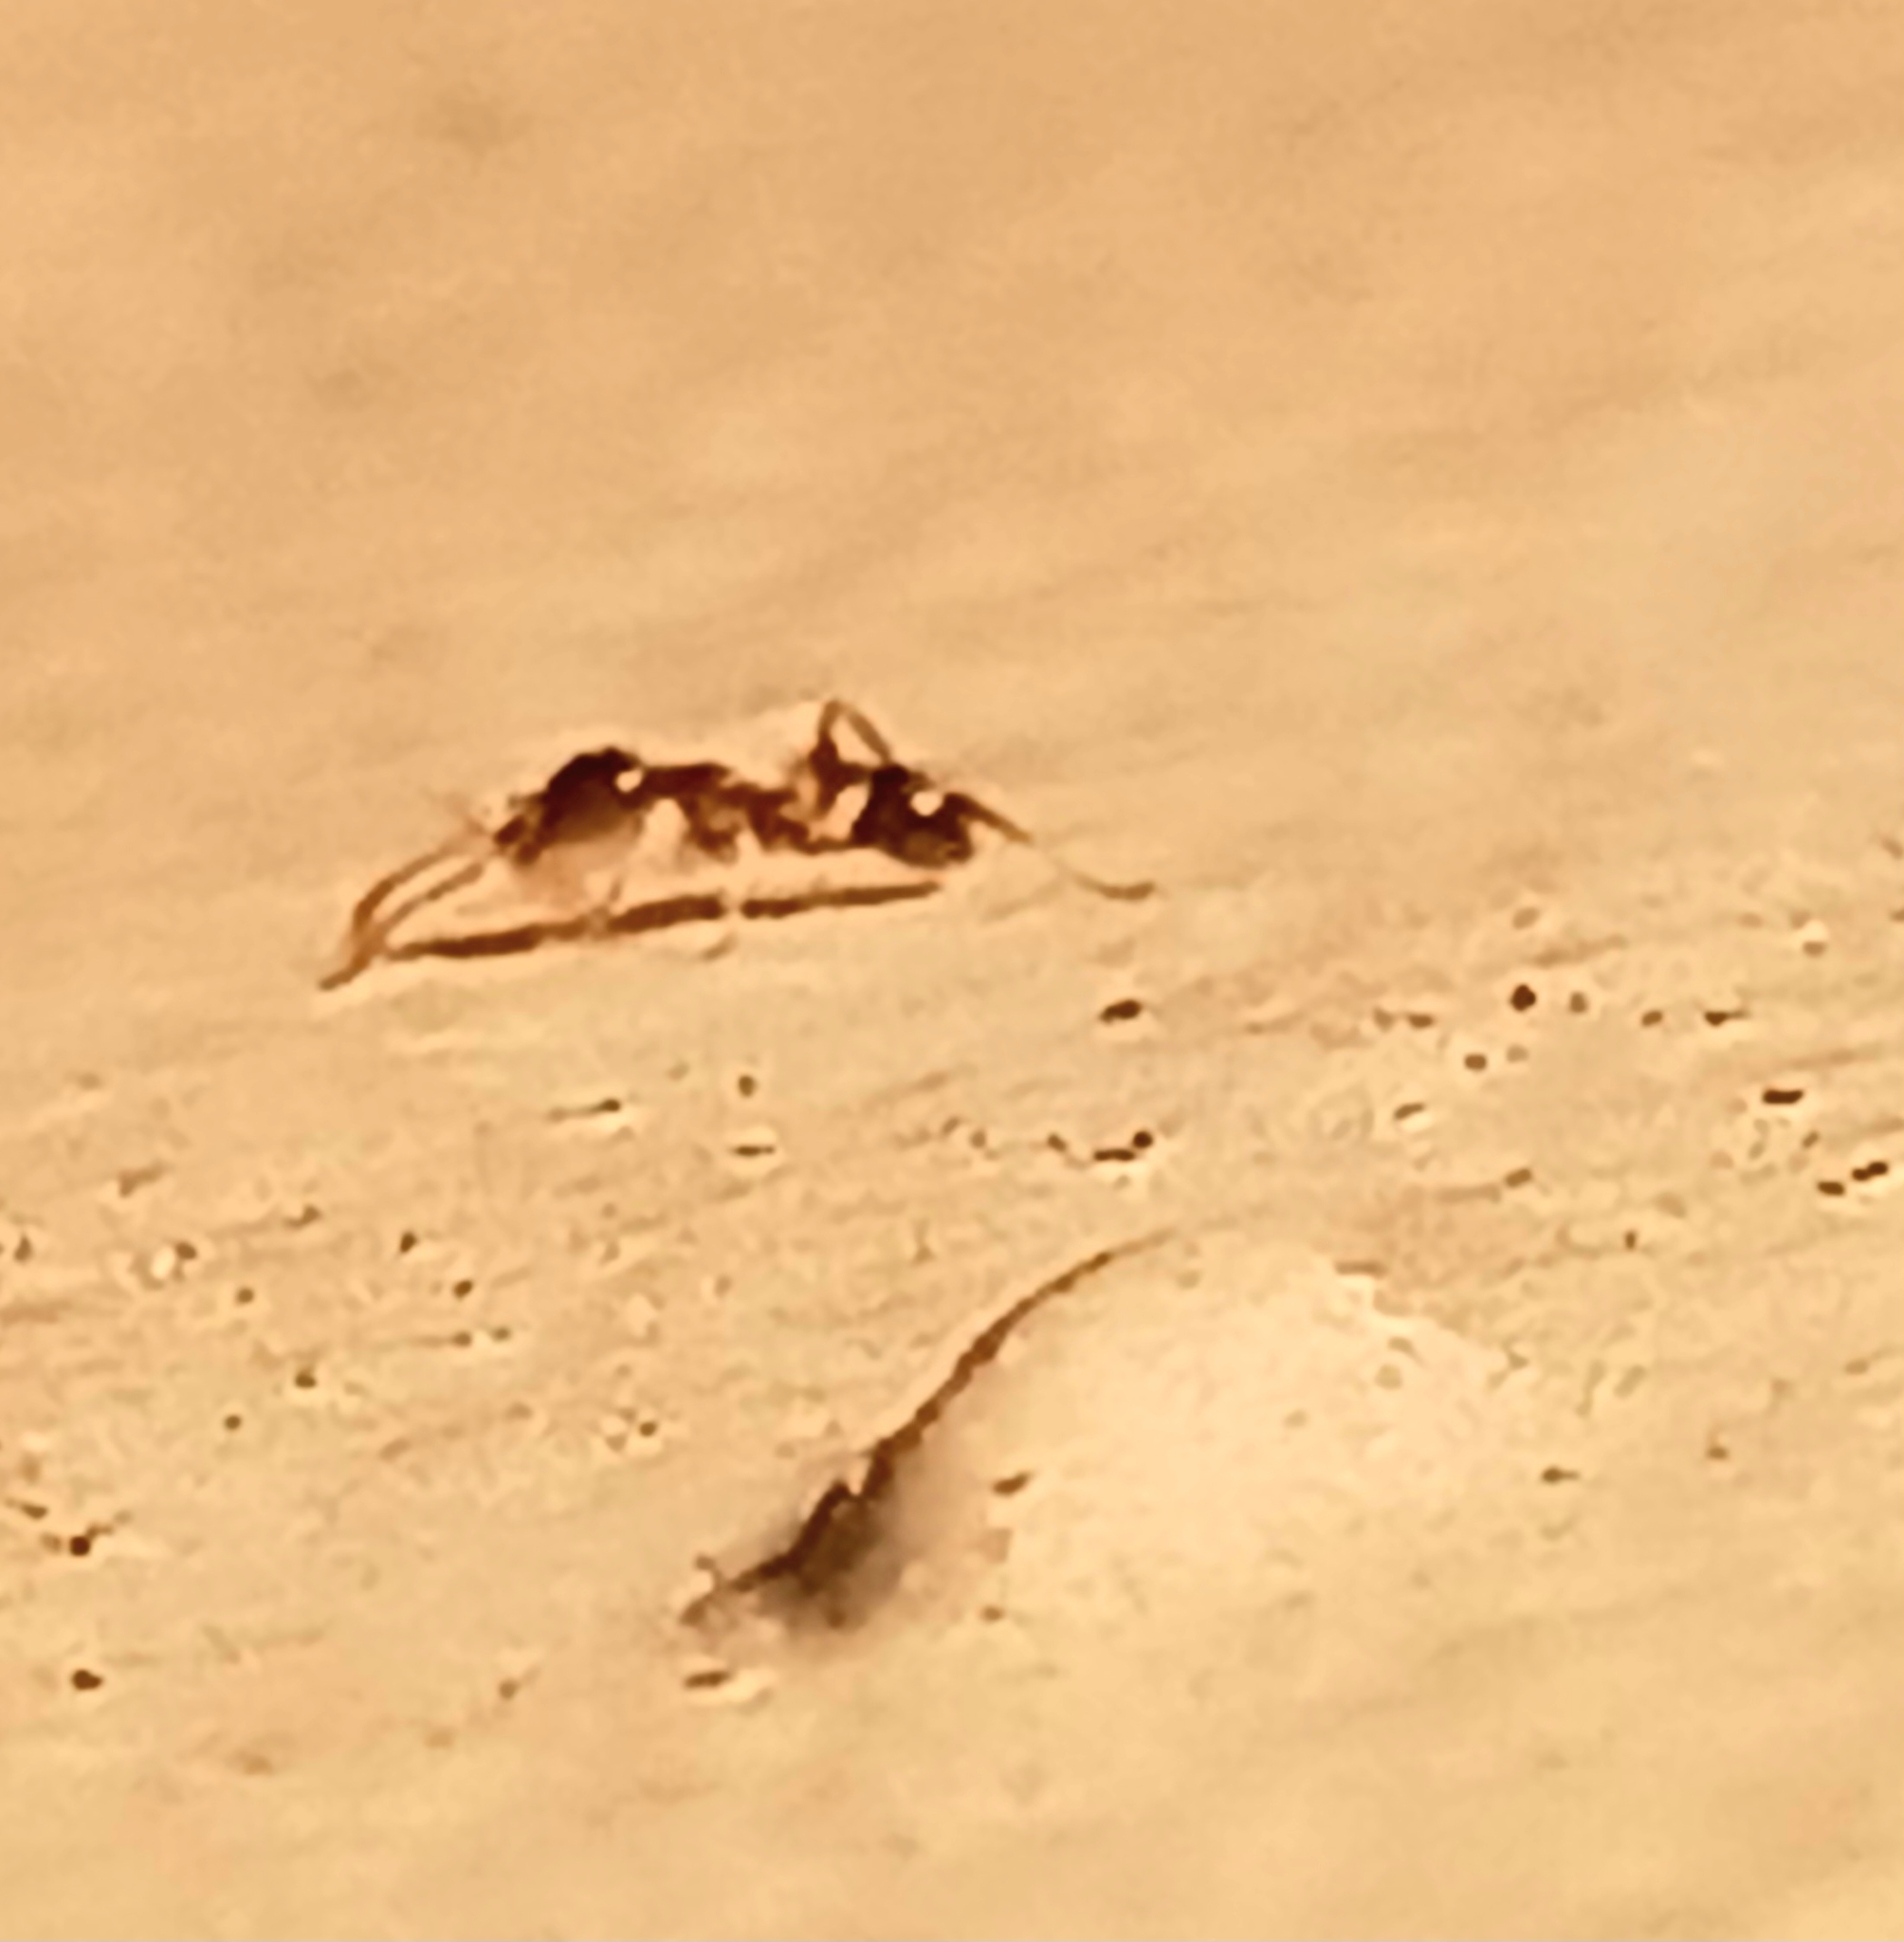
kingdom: Animalia
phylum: Arthropoda
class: Insecta
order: Hymenoptera
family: Formicidae
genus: Pheidole
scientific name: Pheidole megacephala
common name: Bigheaded ant
